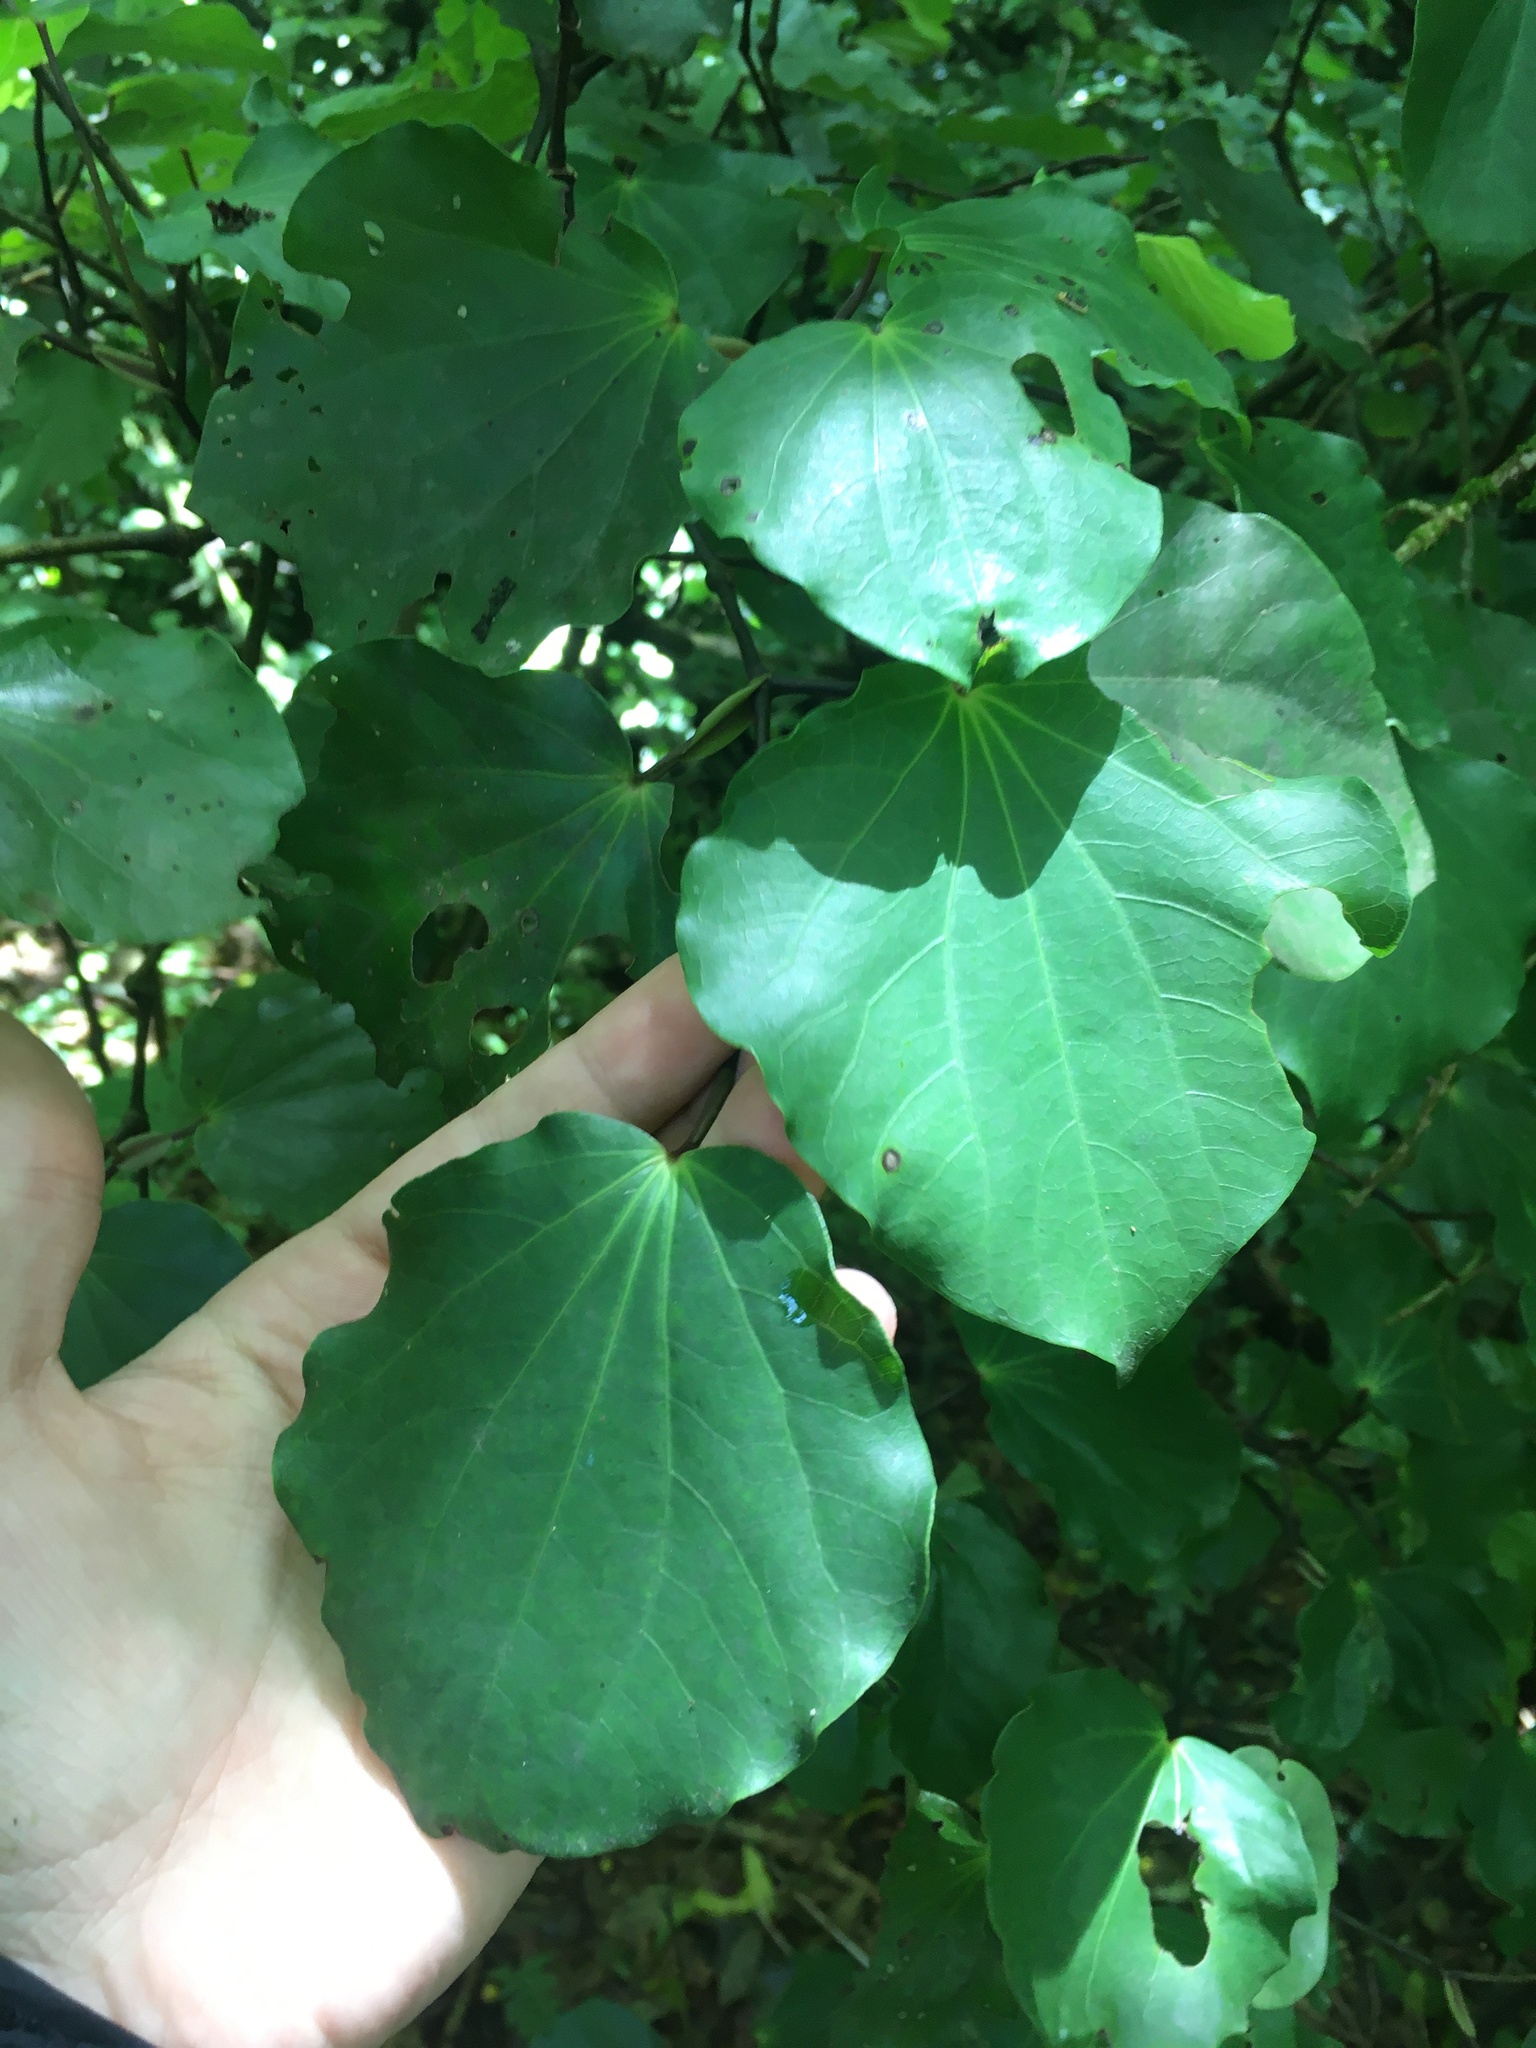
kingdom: Plantae
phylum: Tracheophyta
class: Magnoliopsida
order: Piperales
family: Piperaceae
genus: Macropiper
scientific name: Macropiper excelsum
